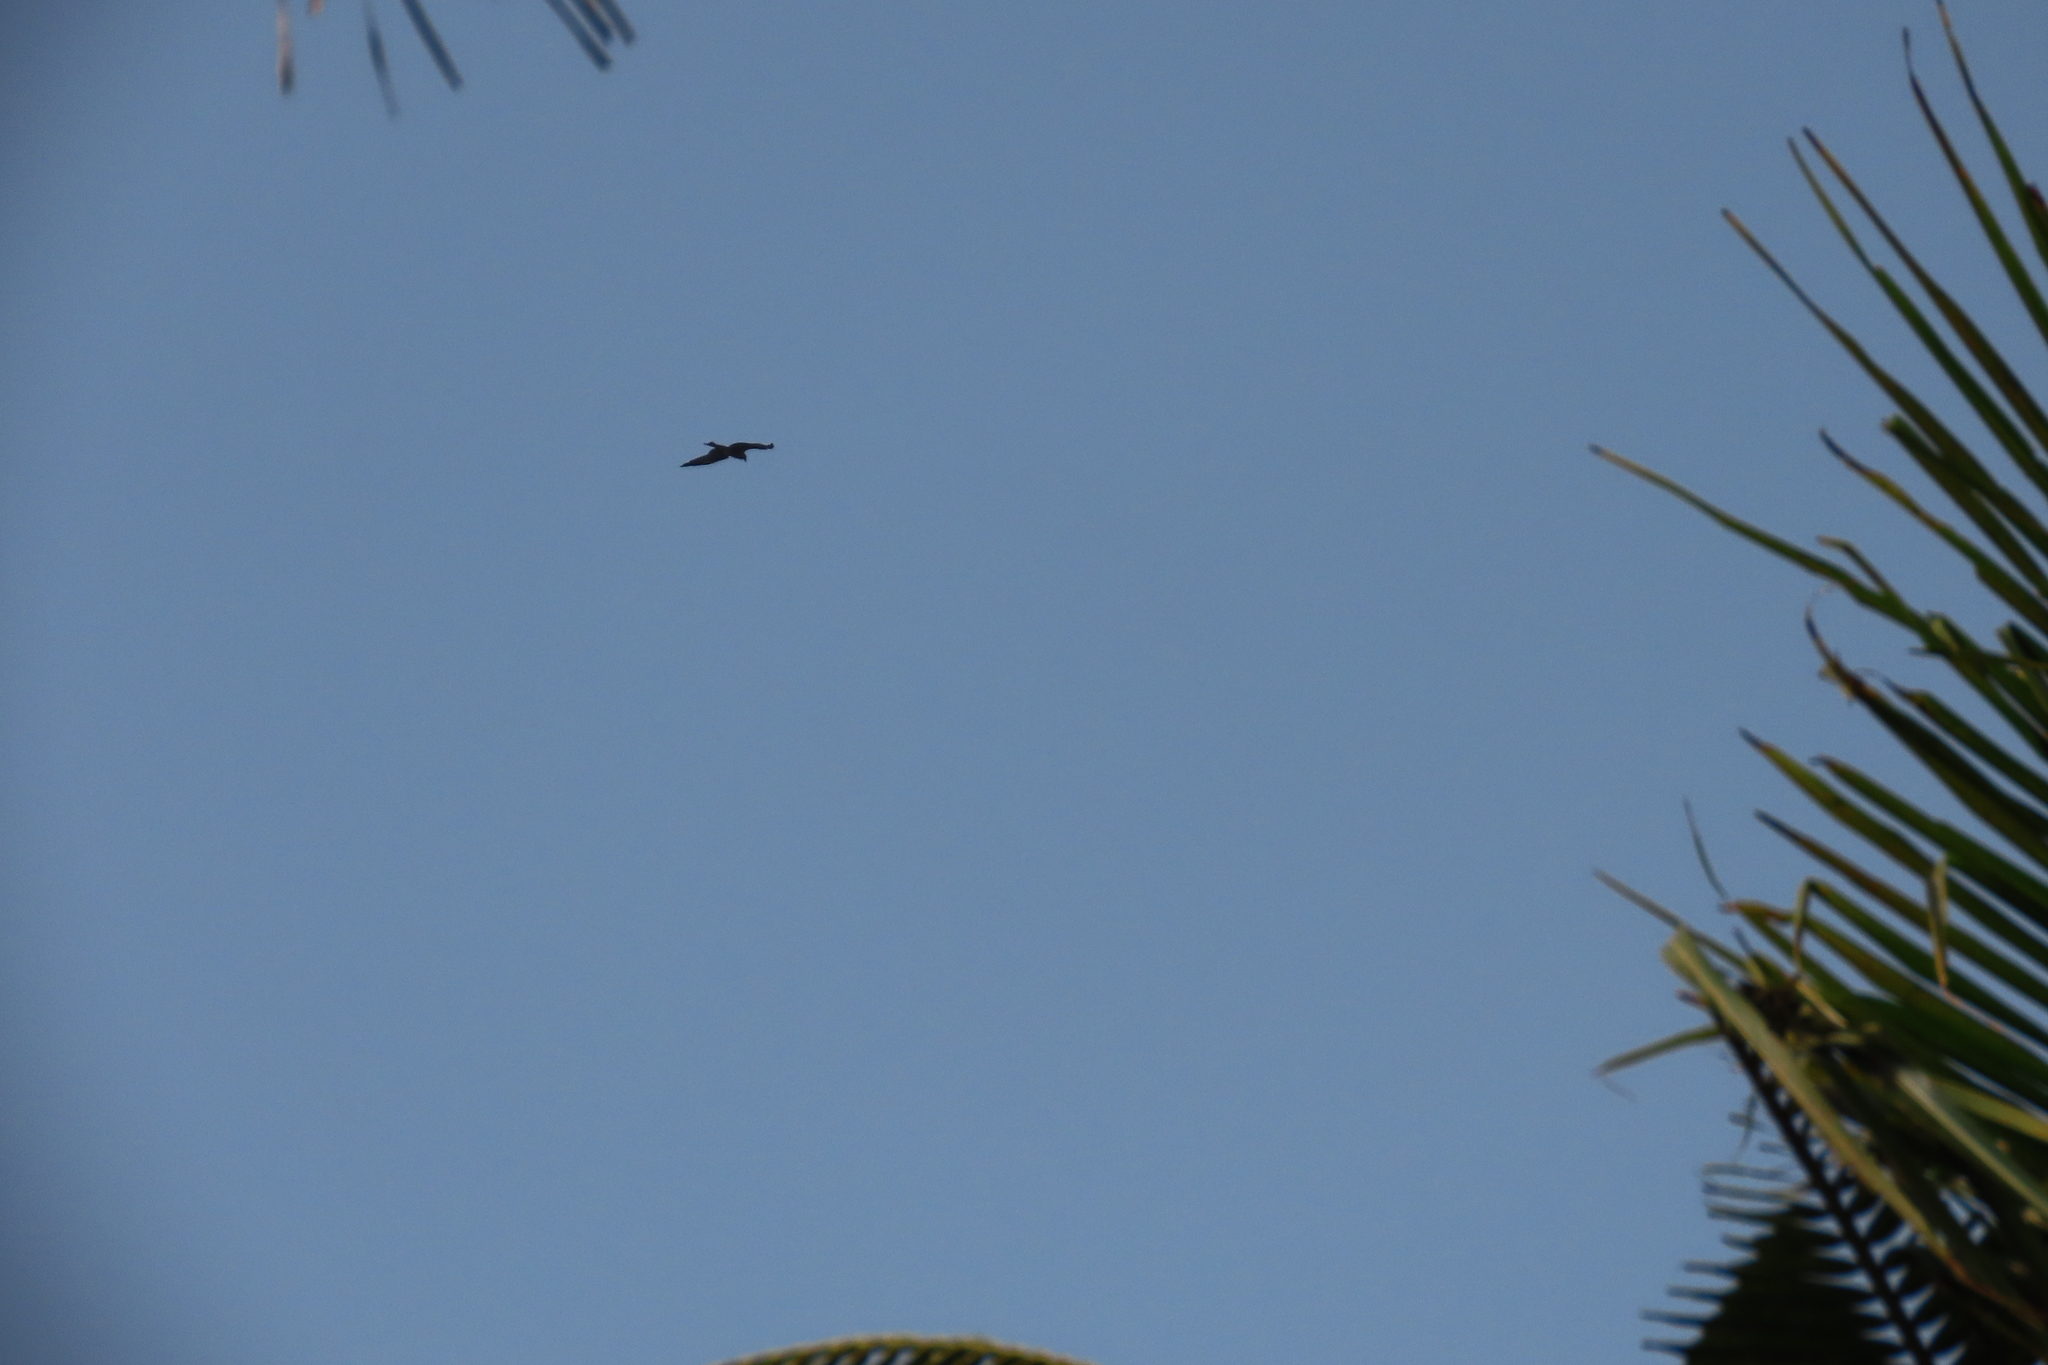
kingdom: Animalia
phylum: Chordata
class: Aves
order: Accipitriformes
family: Accipitridae
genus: Milvus
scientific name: Milvus migrans
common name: Black kite
